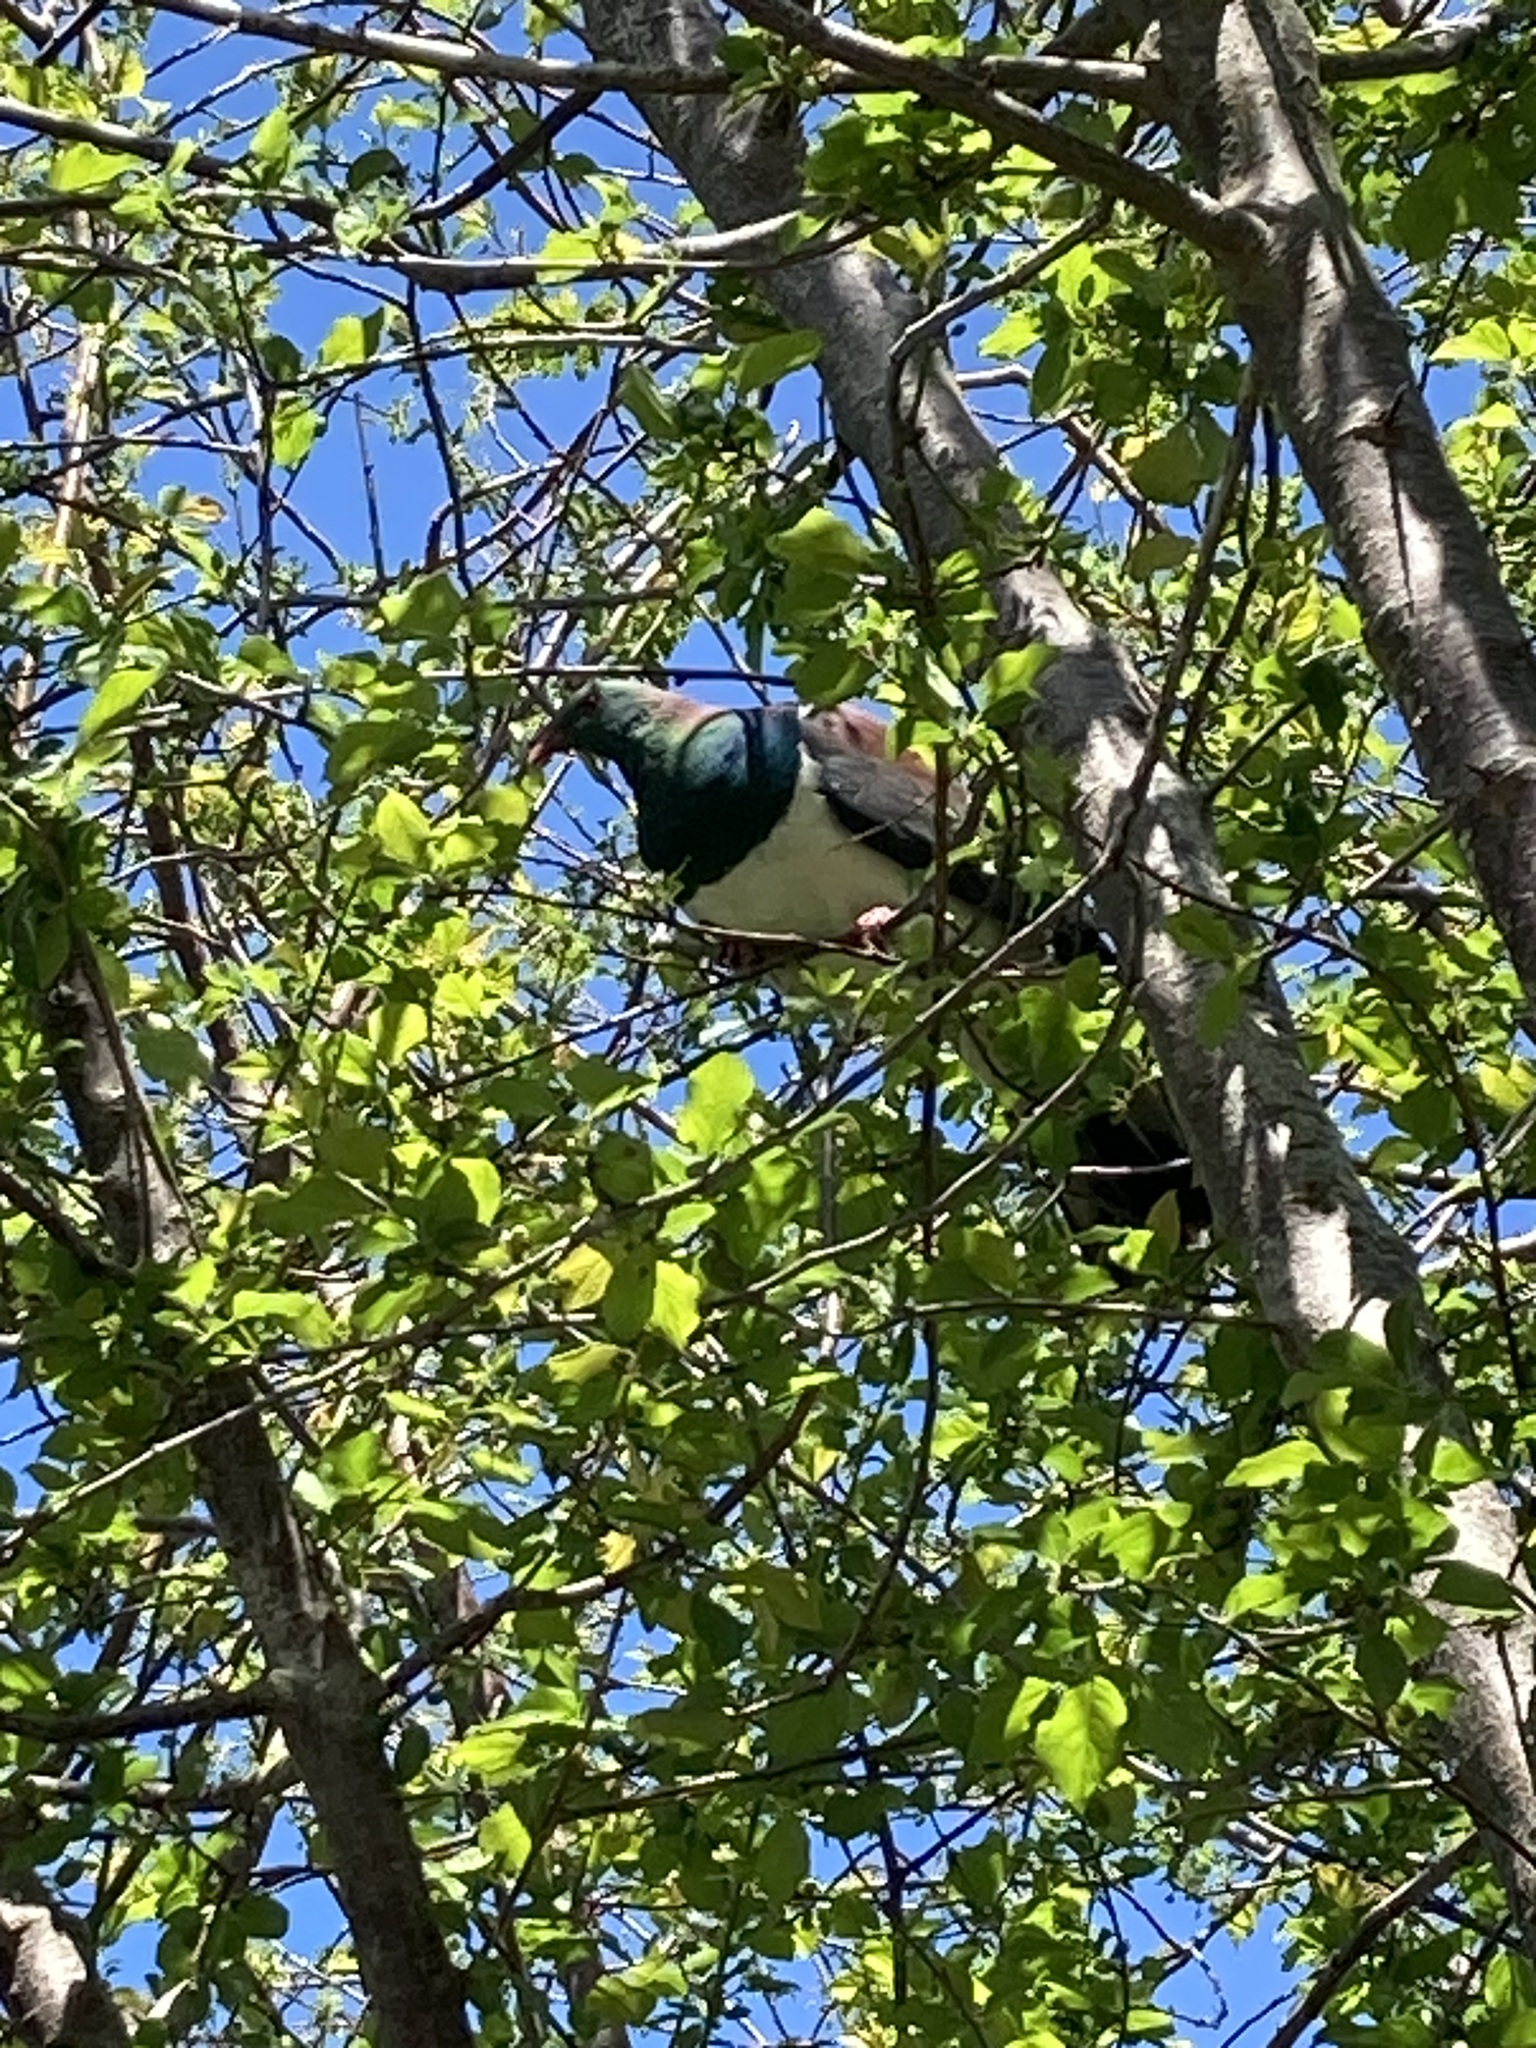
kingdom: Animalia
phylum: Chordata
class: Aves
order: Columbiformes
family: Columbidae
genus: Hemiphaga
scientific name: Hemiphaga novaeseelandiae
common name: New zealand pigeon
